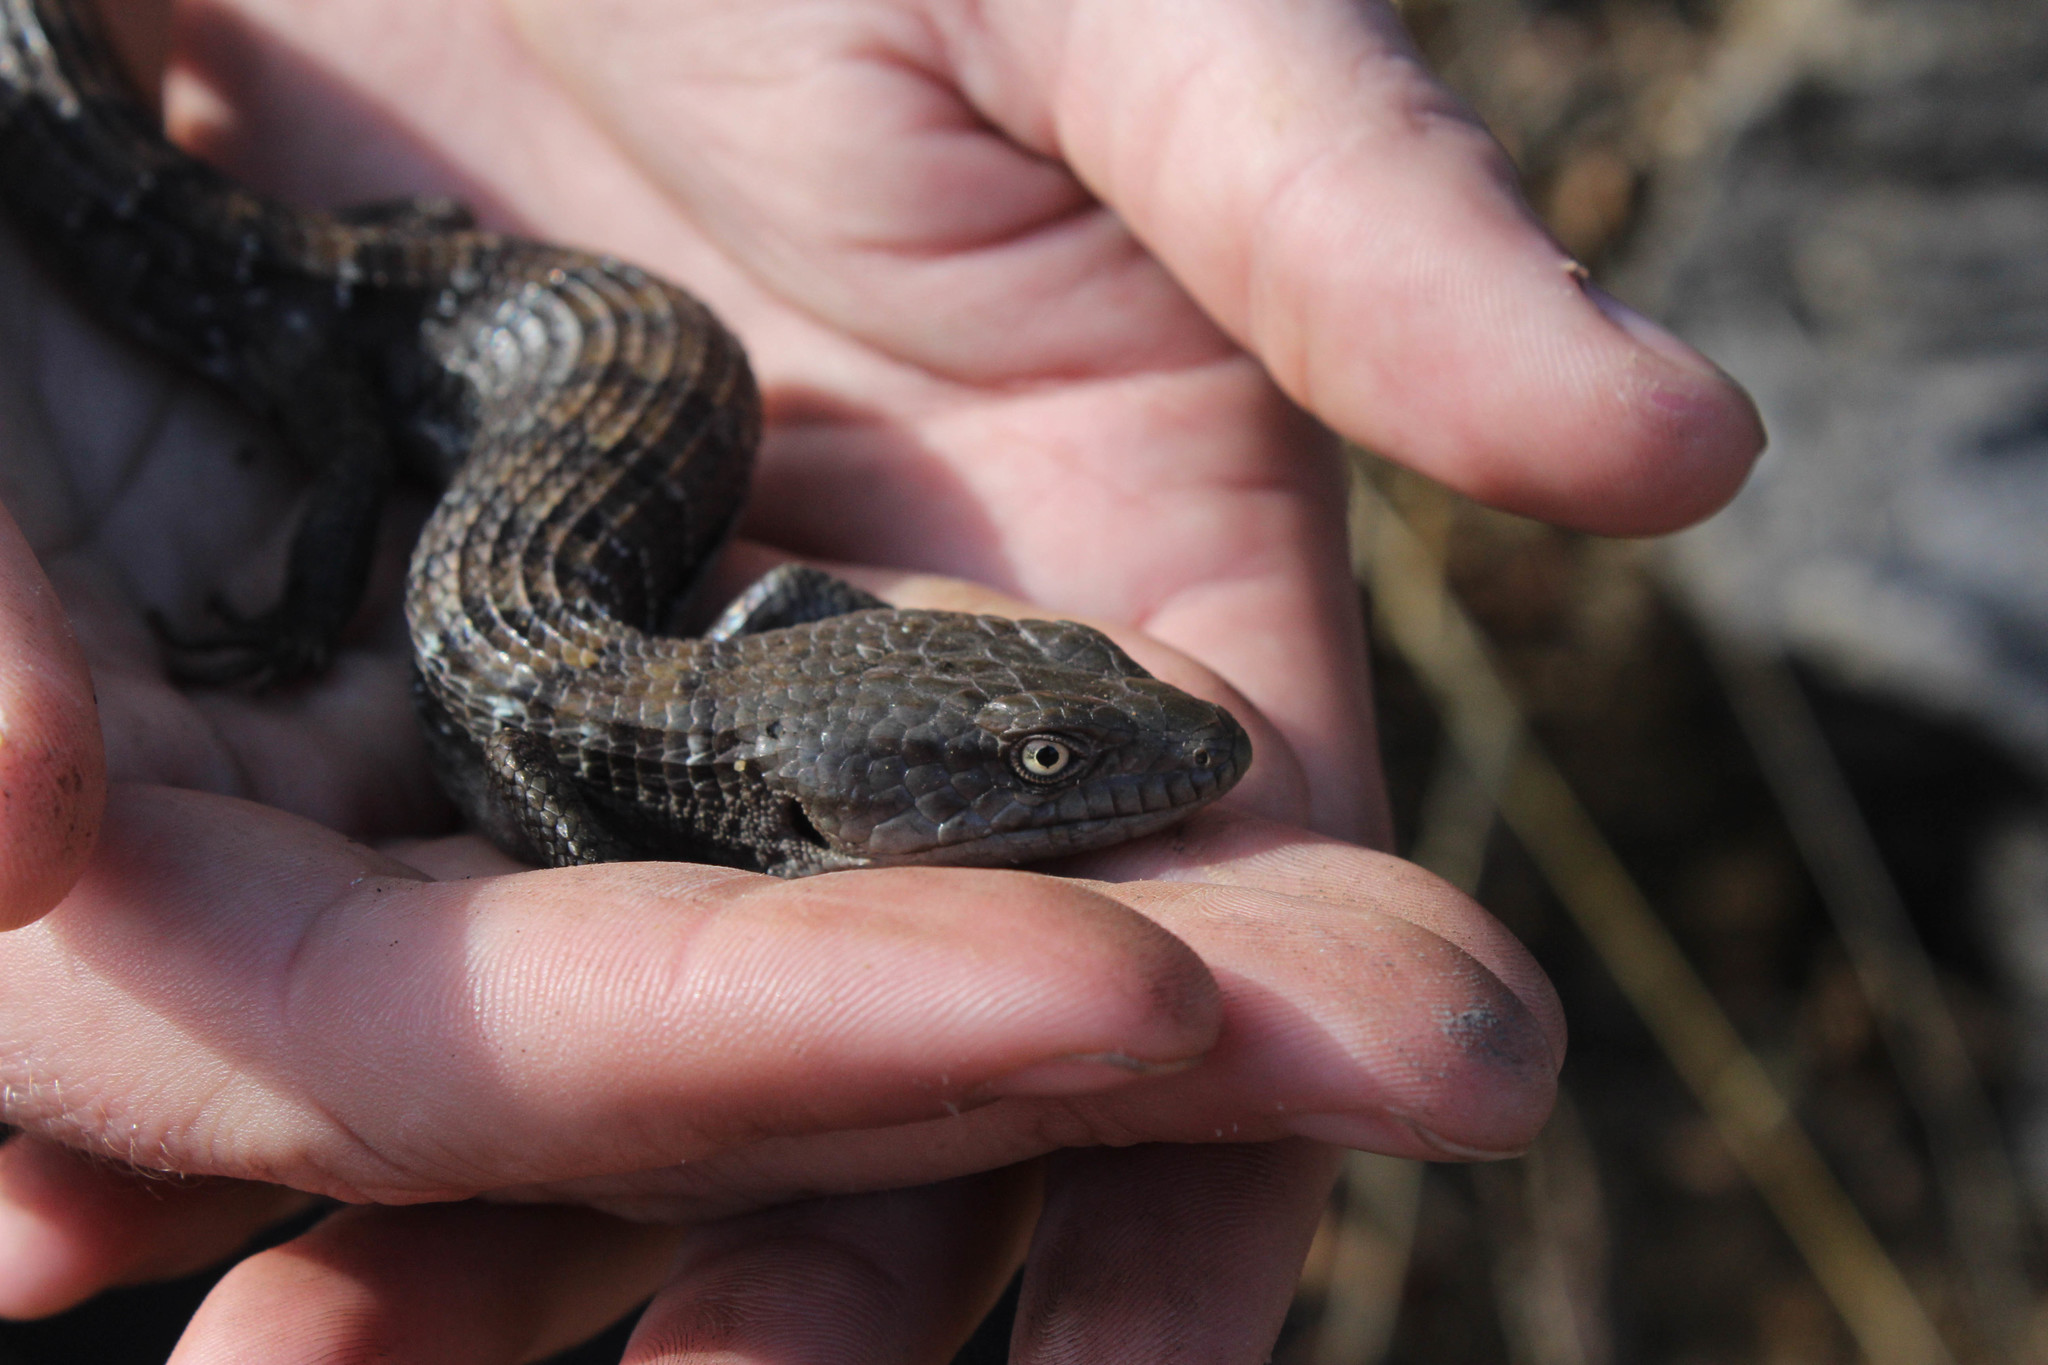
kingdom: Animalia
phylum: Chordata
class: Squamata
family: Anguidae
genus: Elgaria
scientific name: Elgaria multicarinata
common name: Southern alligator lizard
